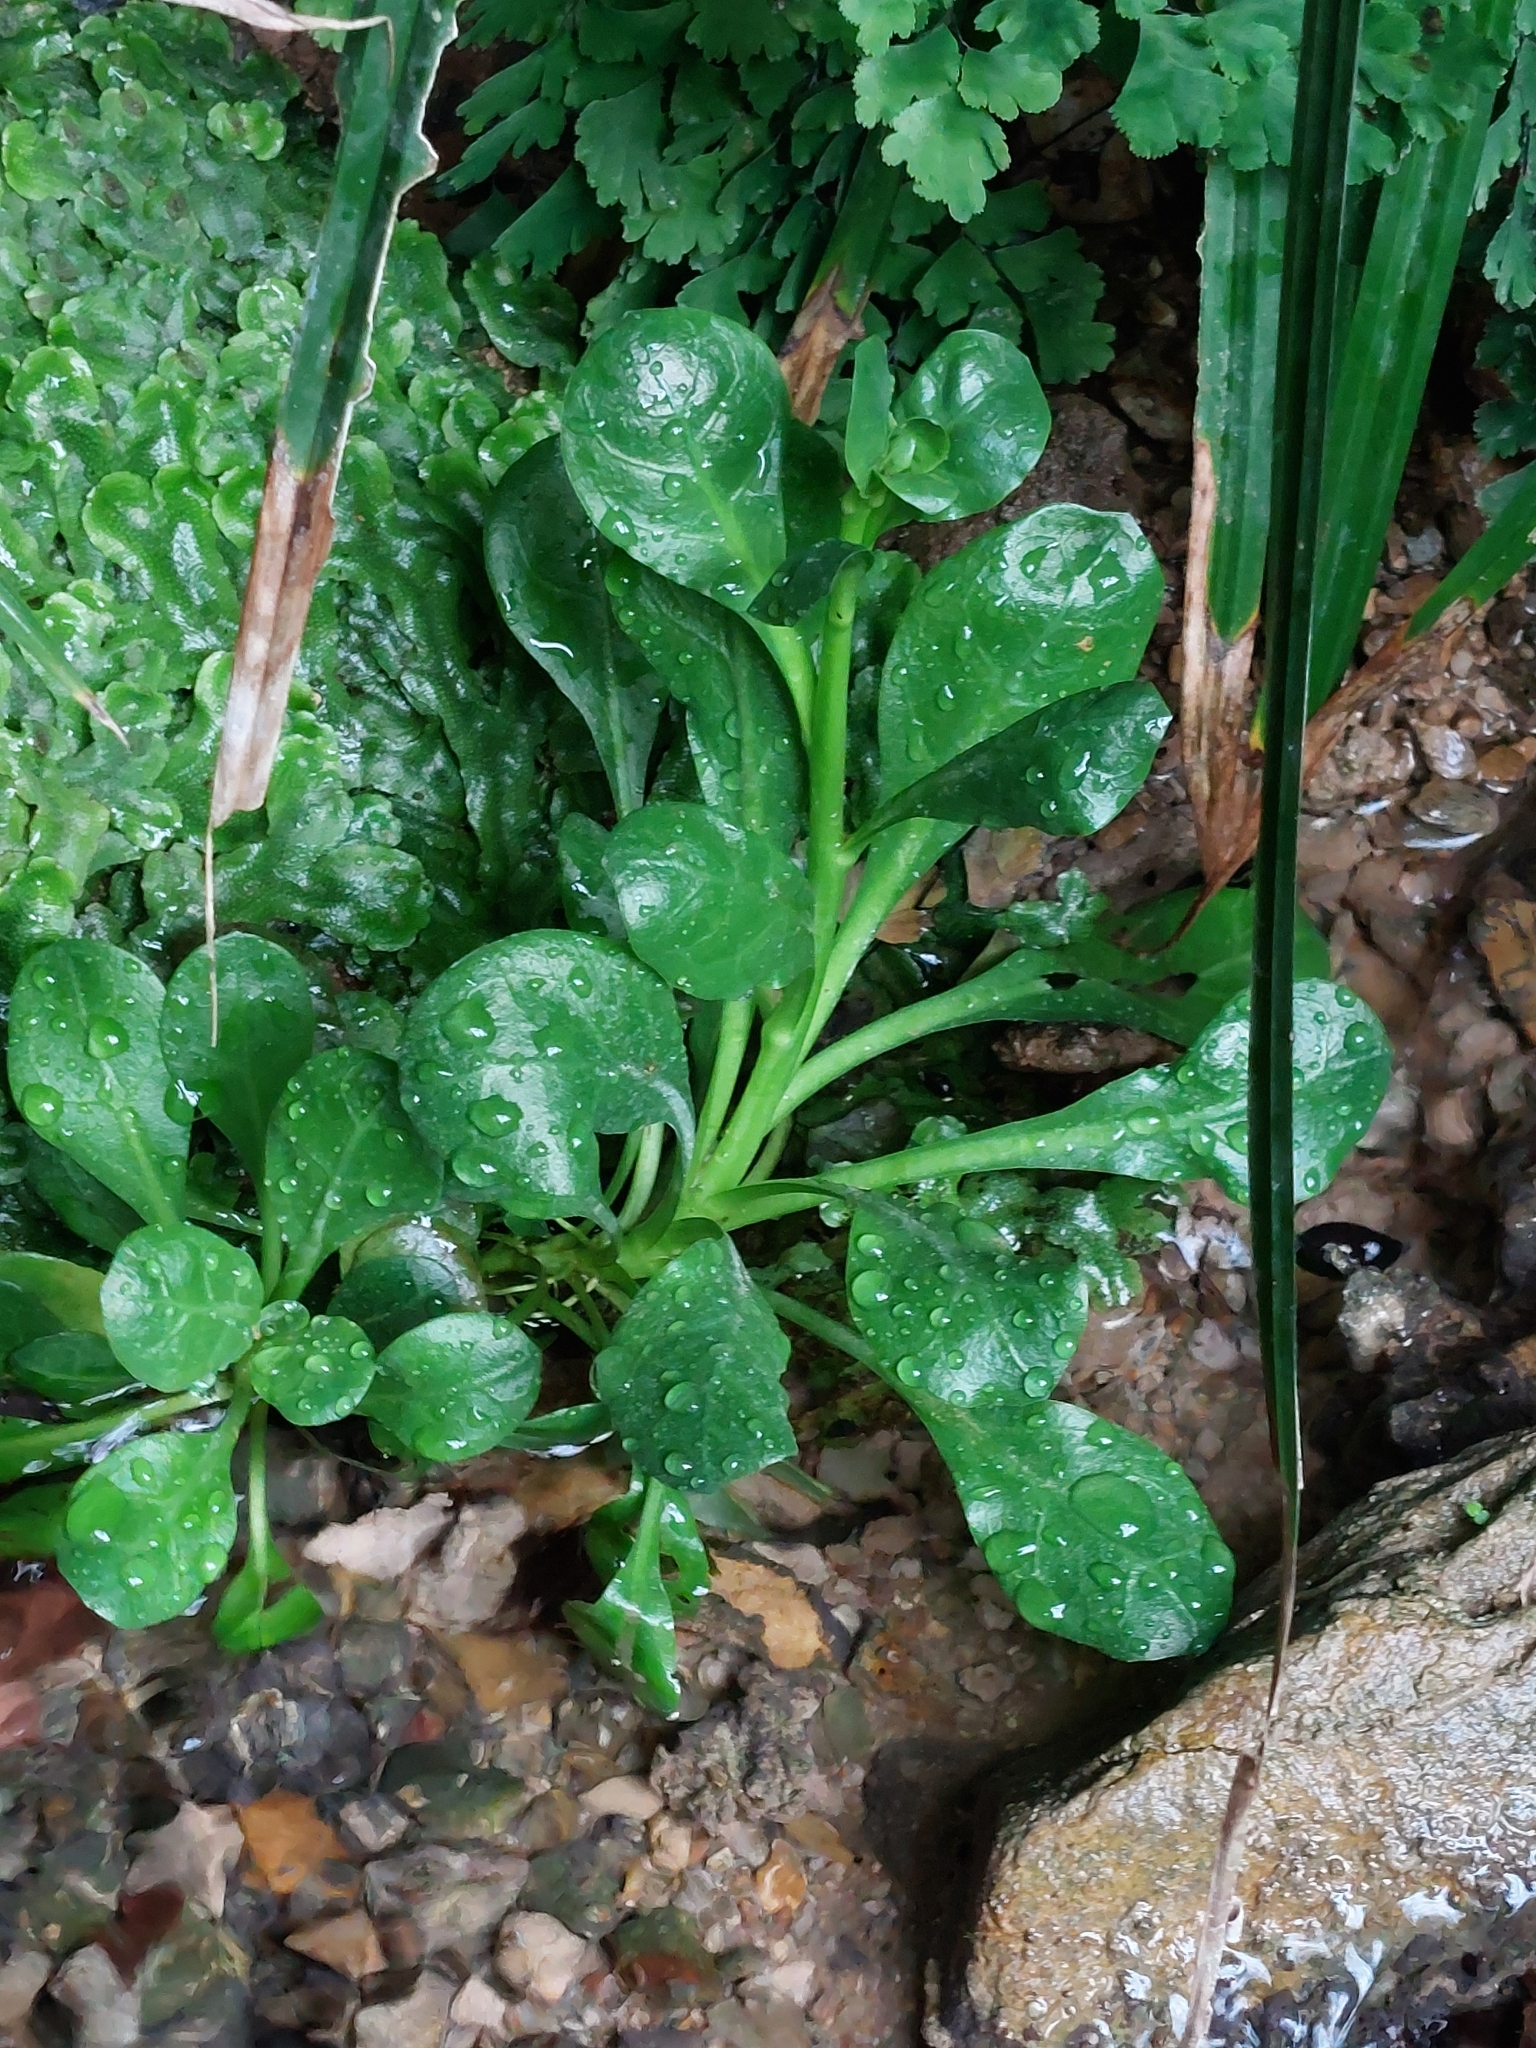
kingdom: Plantae
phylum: Tracheophyta
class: Magnoliopsida
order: Ericales
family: Primulaceae
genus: Samolus
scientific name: Samolus valerandi
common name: Brookweed
